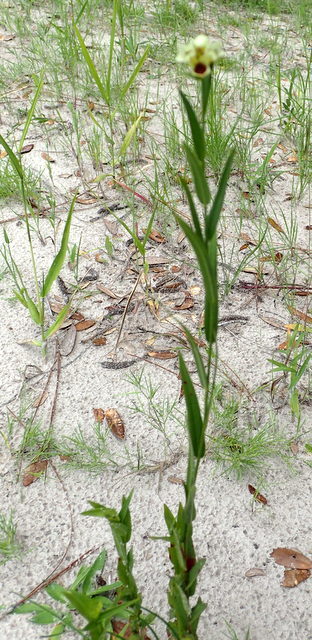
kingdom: Plantae
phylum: Tracheophyta
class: Magnoliopsida
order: Myrtales
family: Onagraceae
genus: Ludwigia
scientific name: Ludwigia suffruticosa
